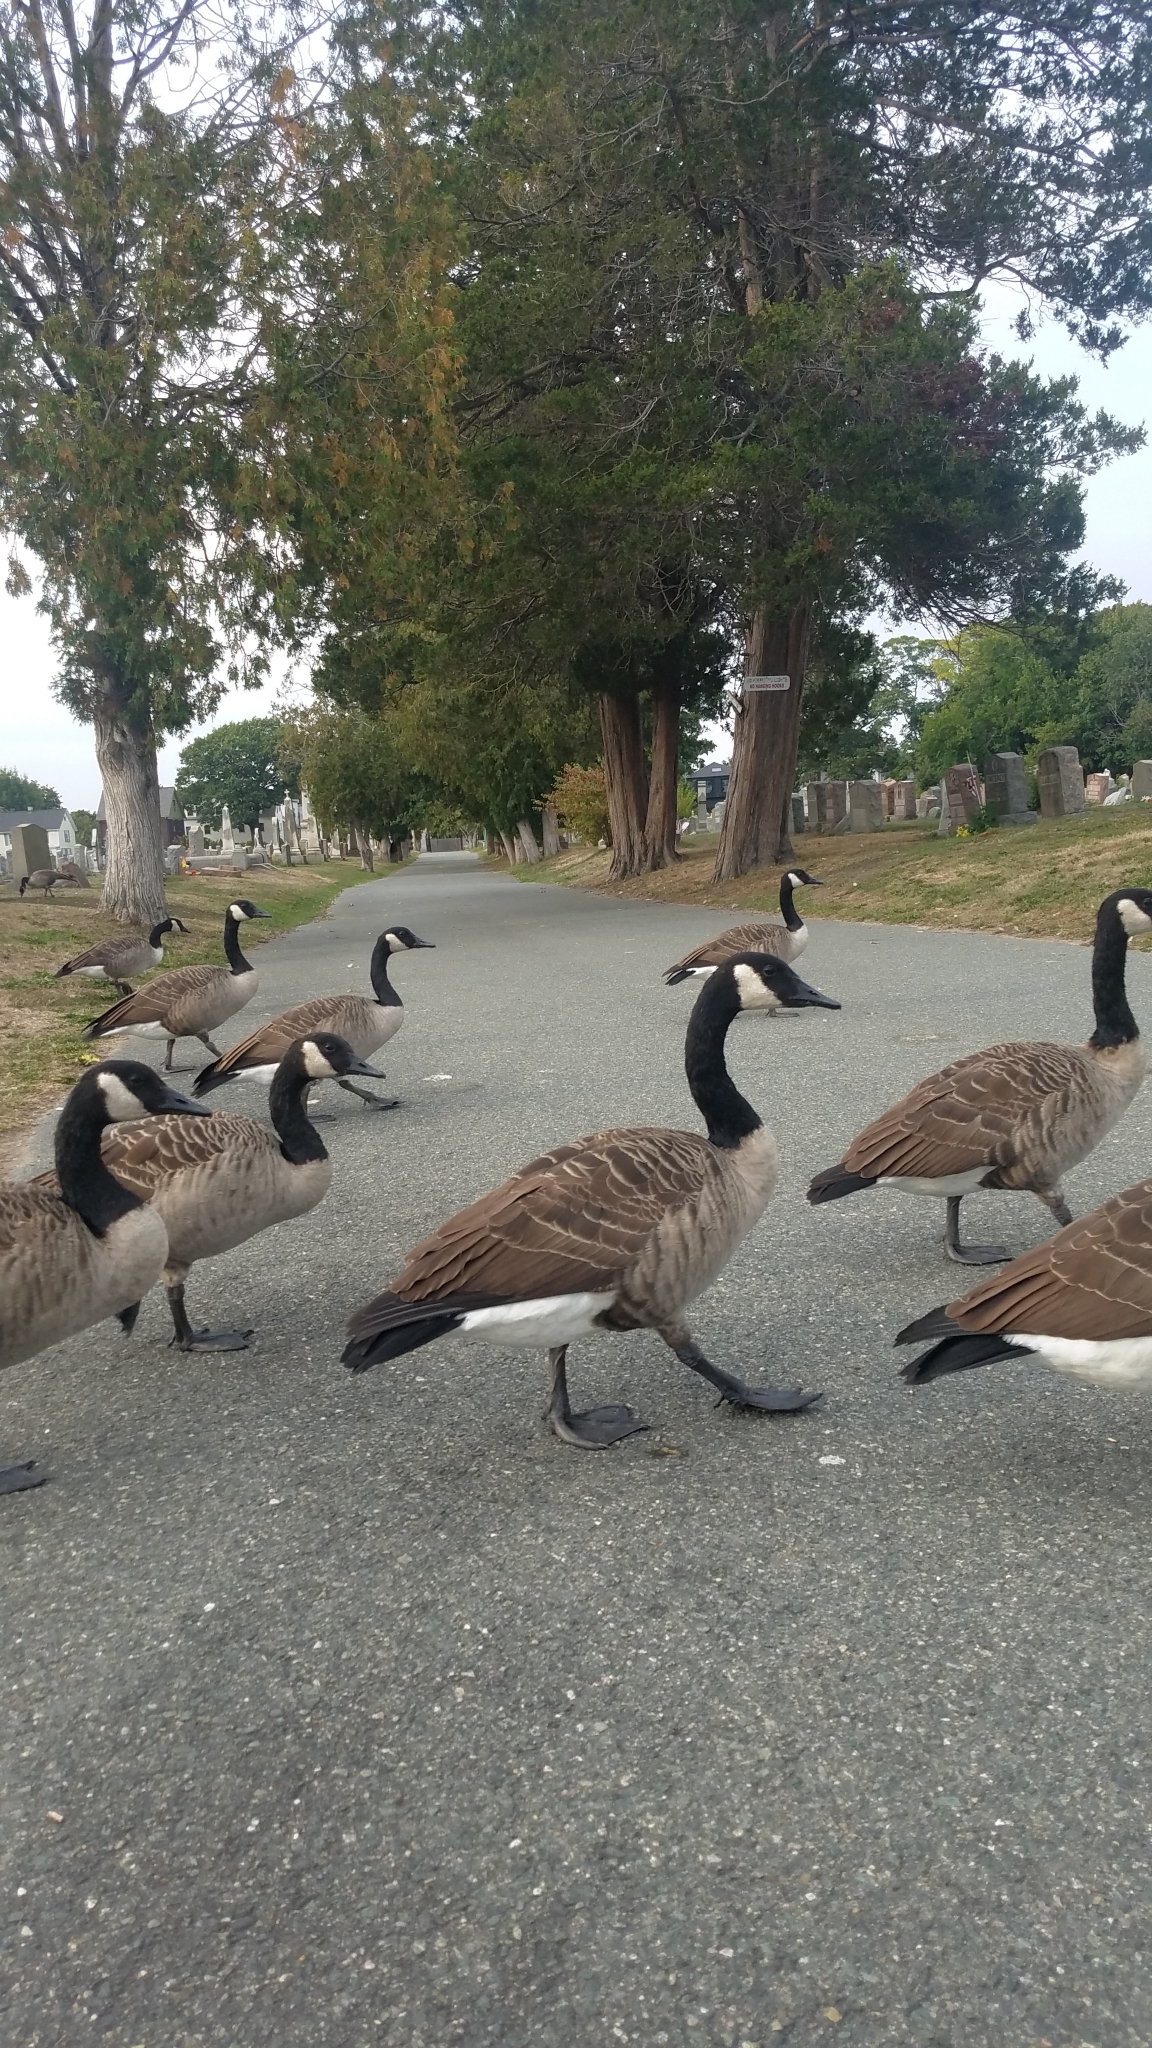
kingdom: Animalia
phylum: Chordata
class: Aves
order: Anseriformes
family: Anatidae
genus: Branta
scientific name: Branta canadensis
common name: Canada goose
